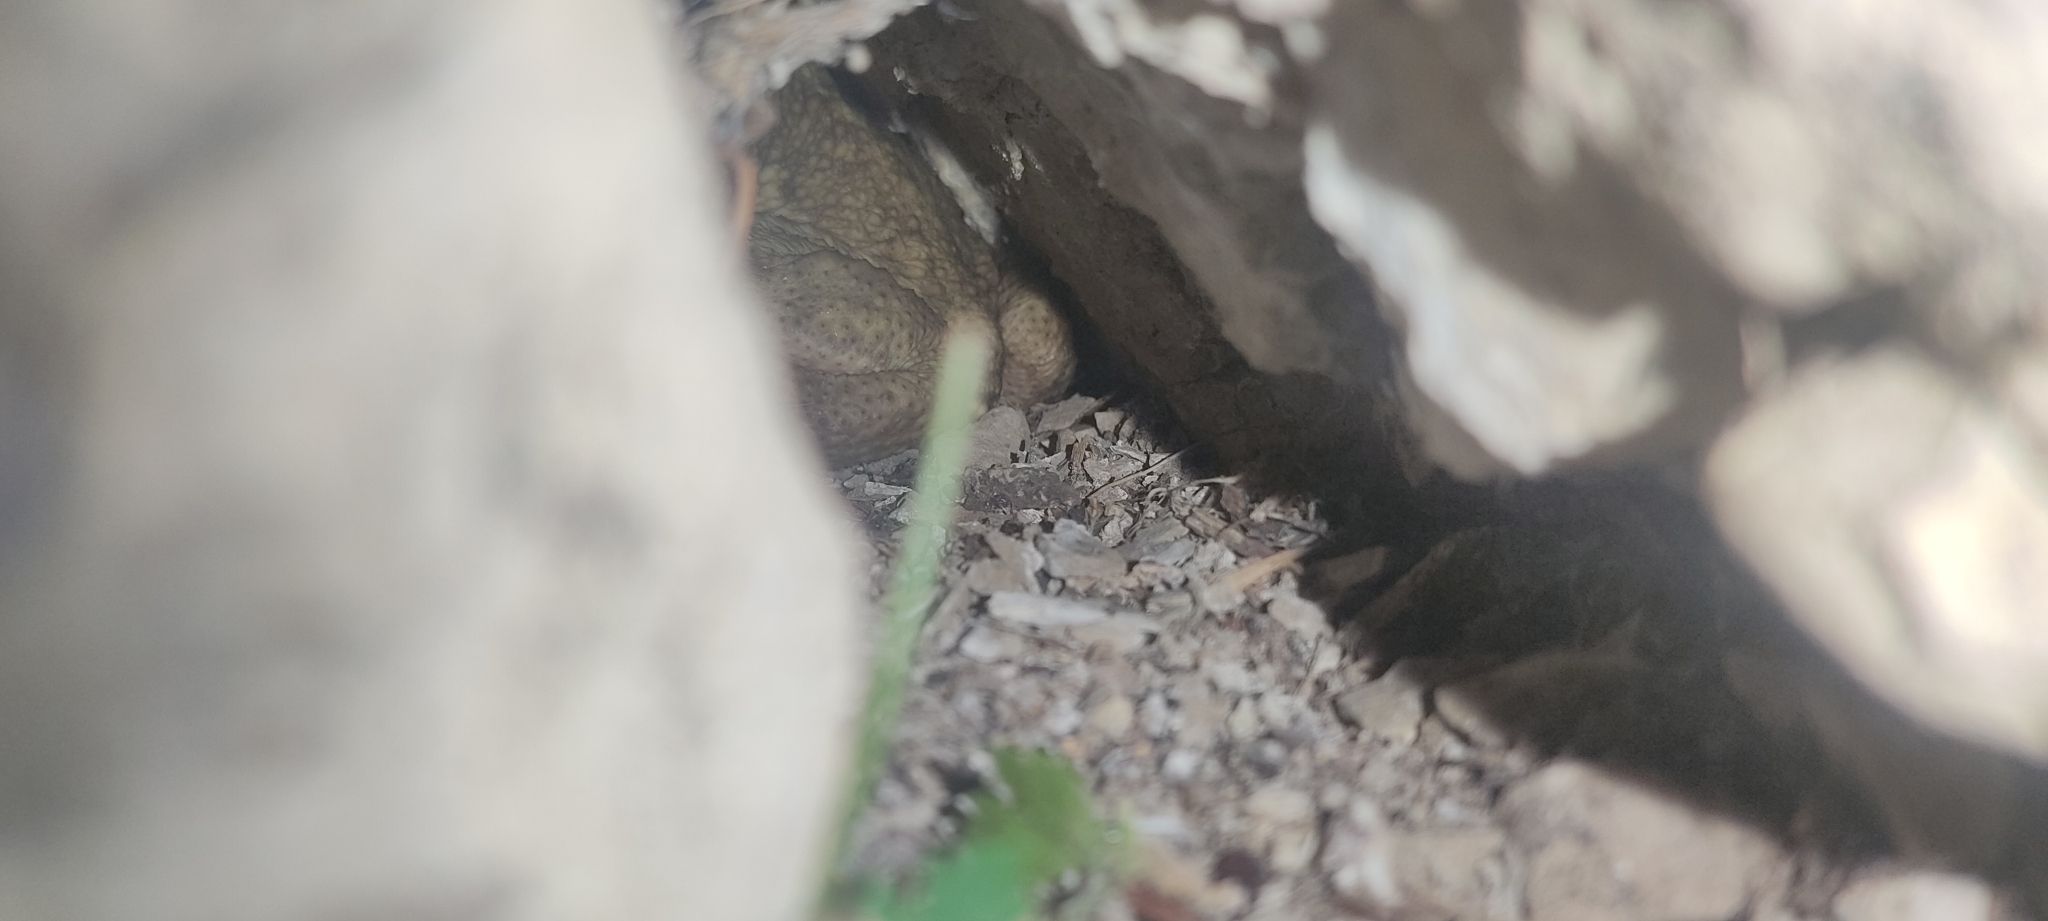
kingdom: Animalia
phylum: Chordata
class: Amphibia
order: Anura
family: Bufonidae
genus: Bufo
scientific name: Bufo spinosus
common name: Western common toad
